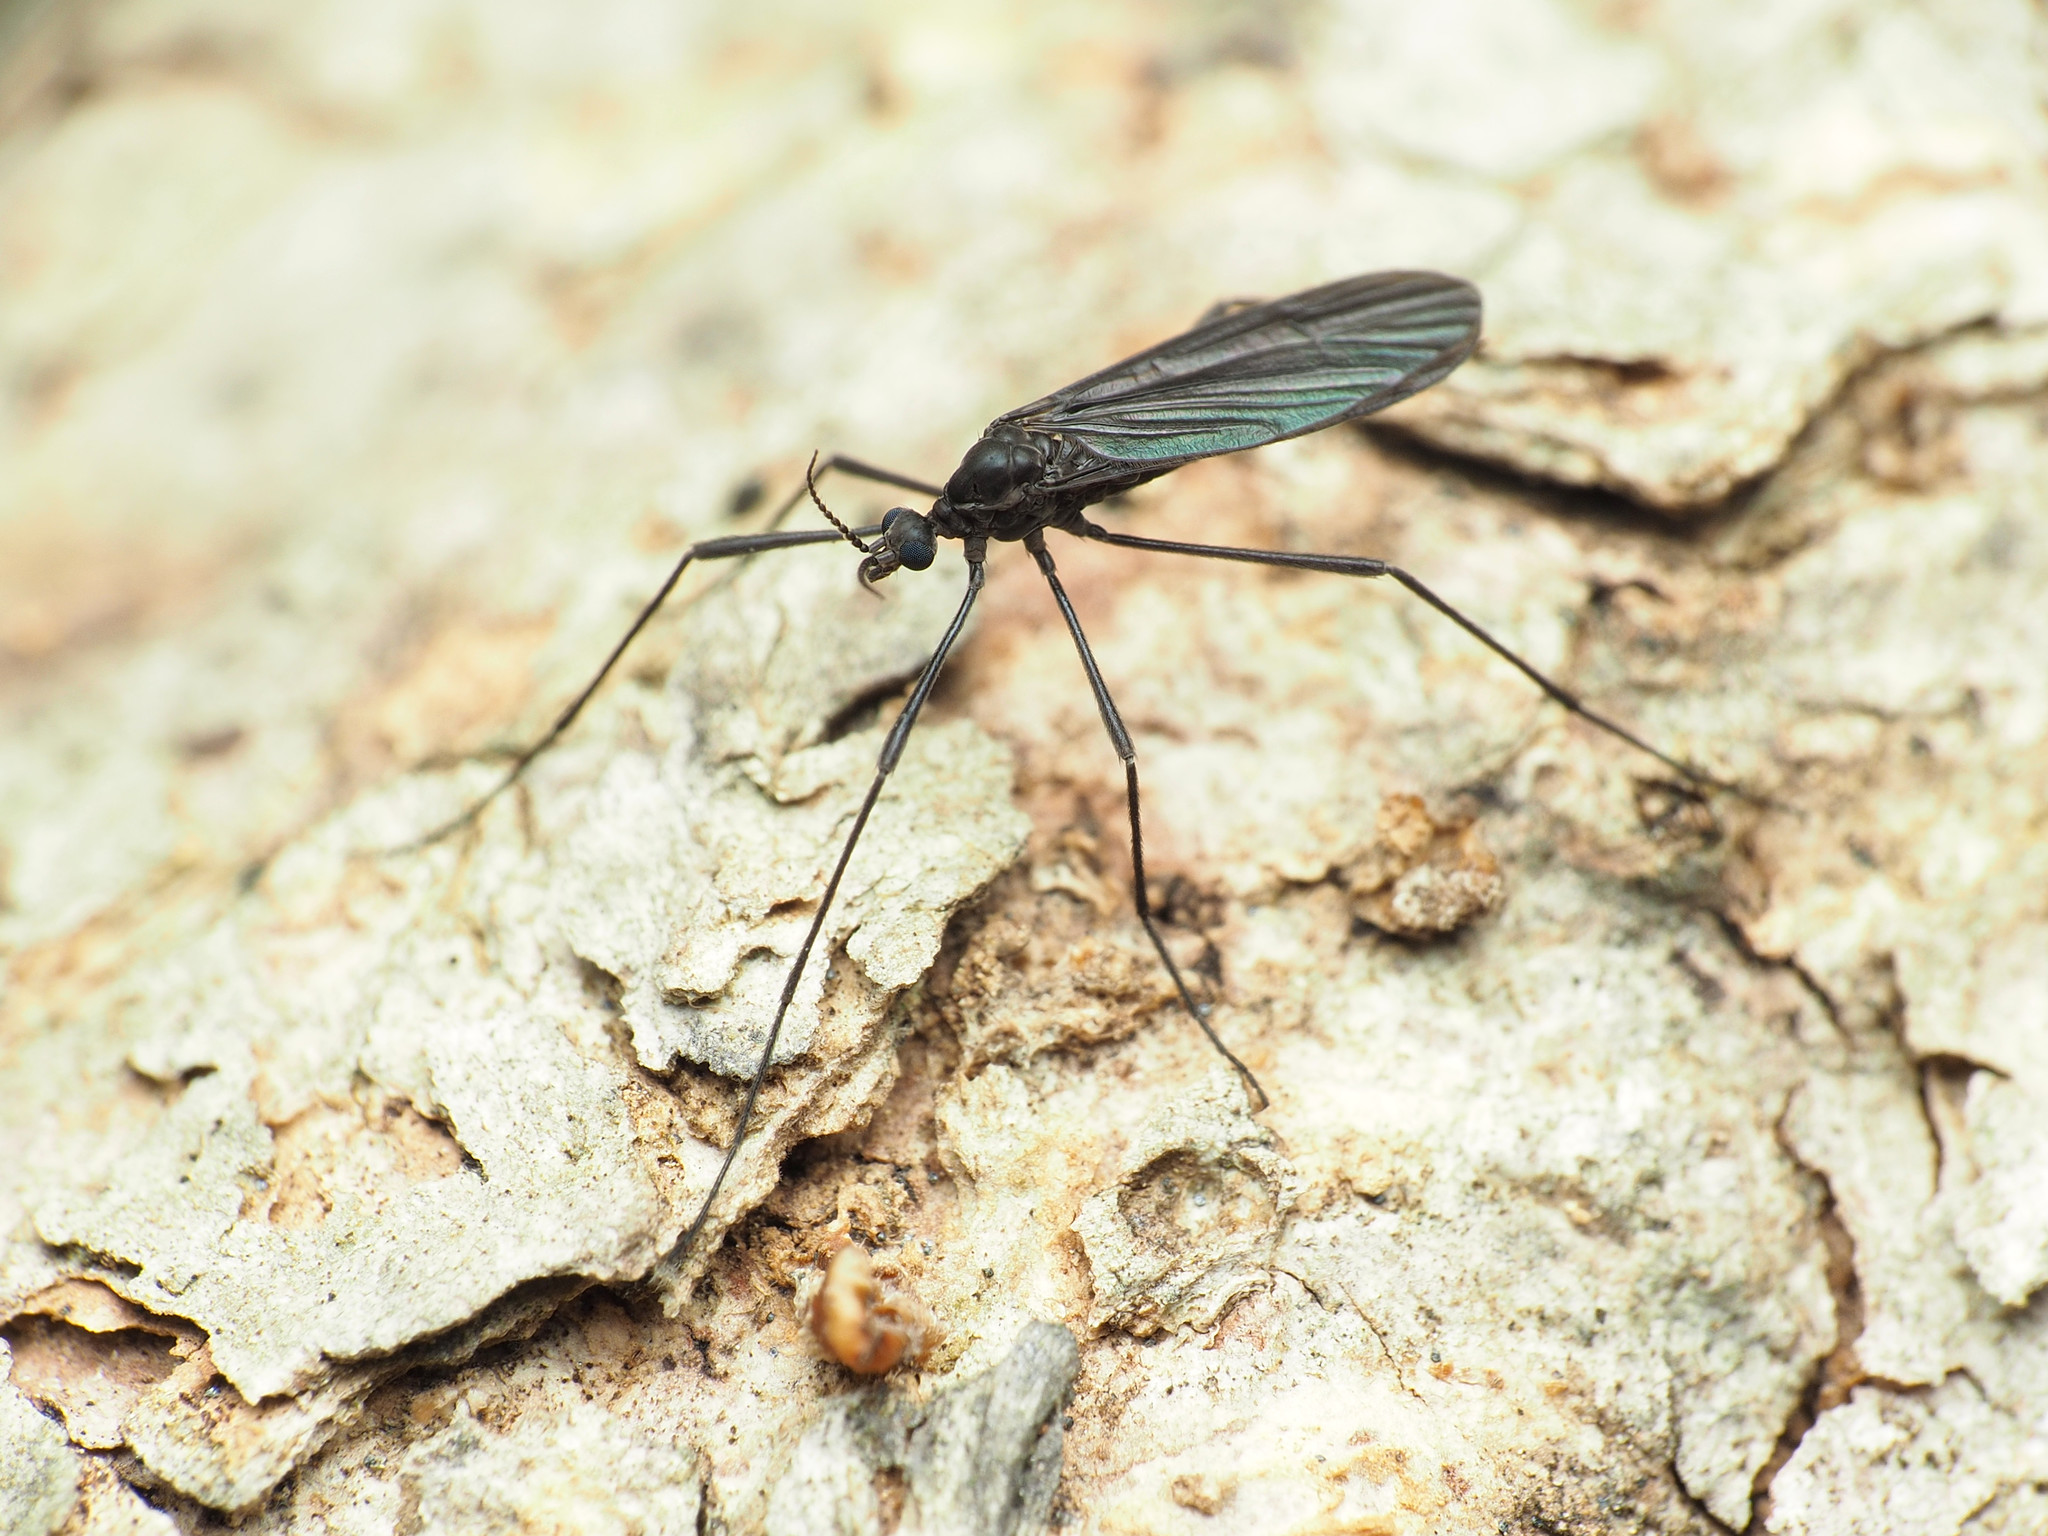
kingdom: Animalia
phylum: Arthropoda
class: Insecta
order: Diptera
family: Limoniidae
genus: Eugnophomyia
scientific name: Eugnophomyia luctuosa
